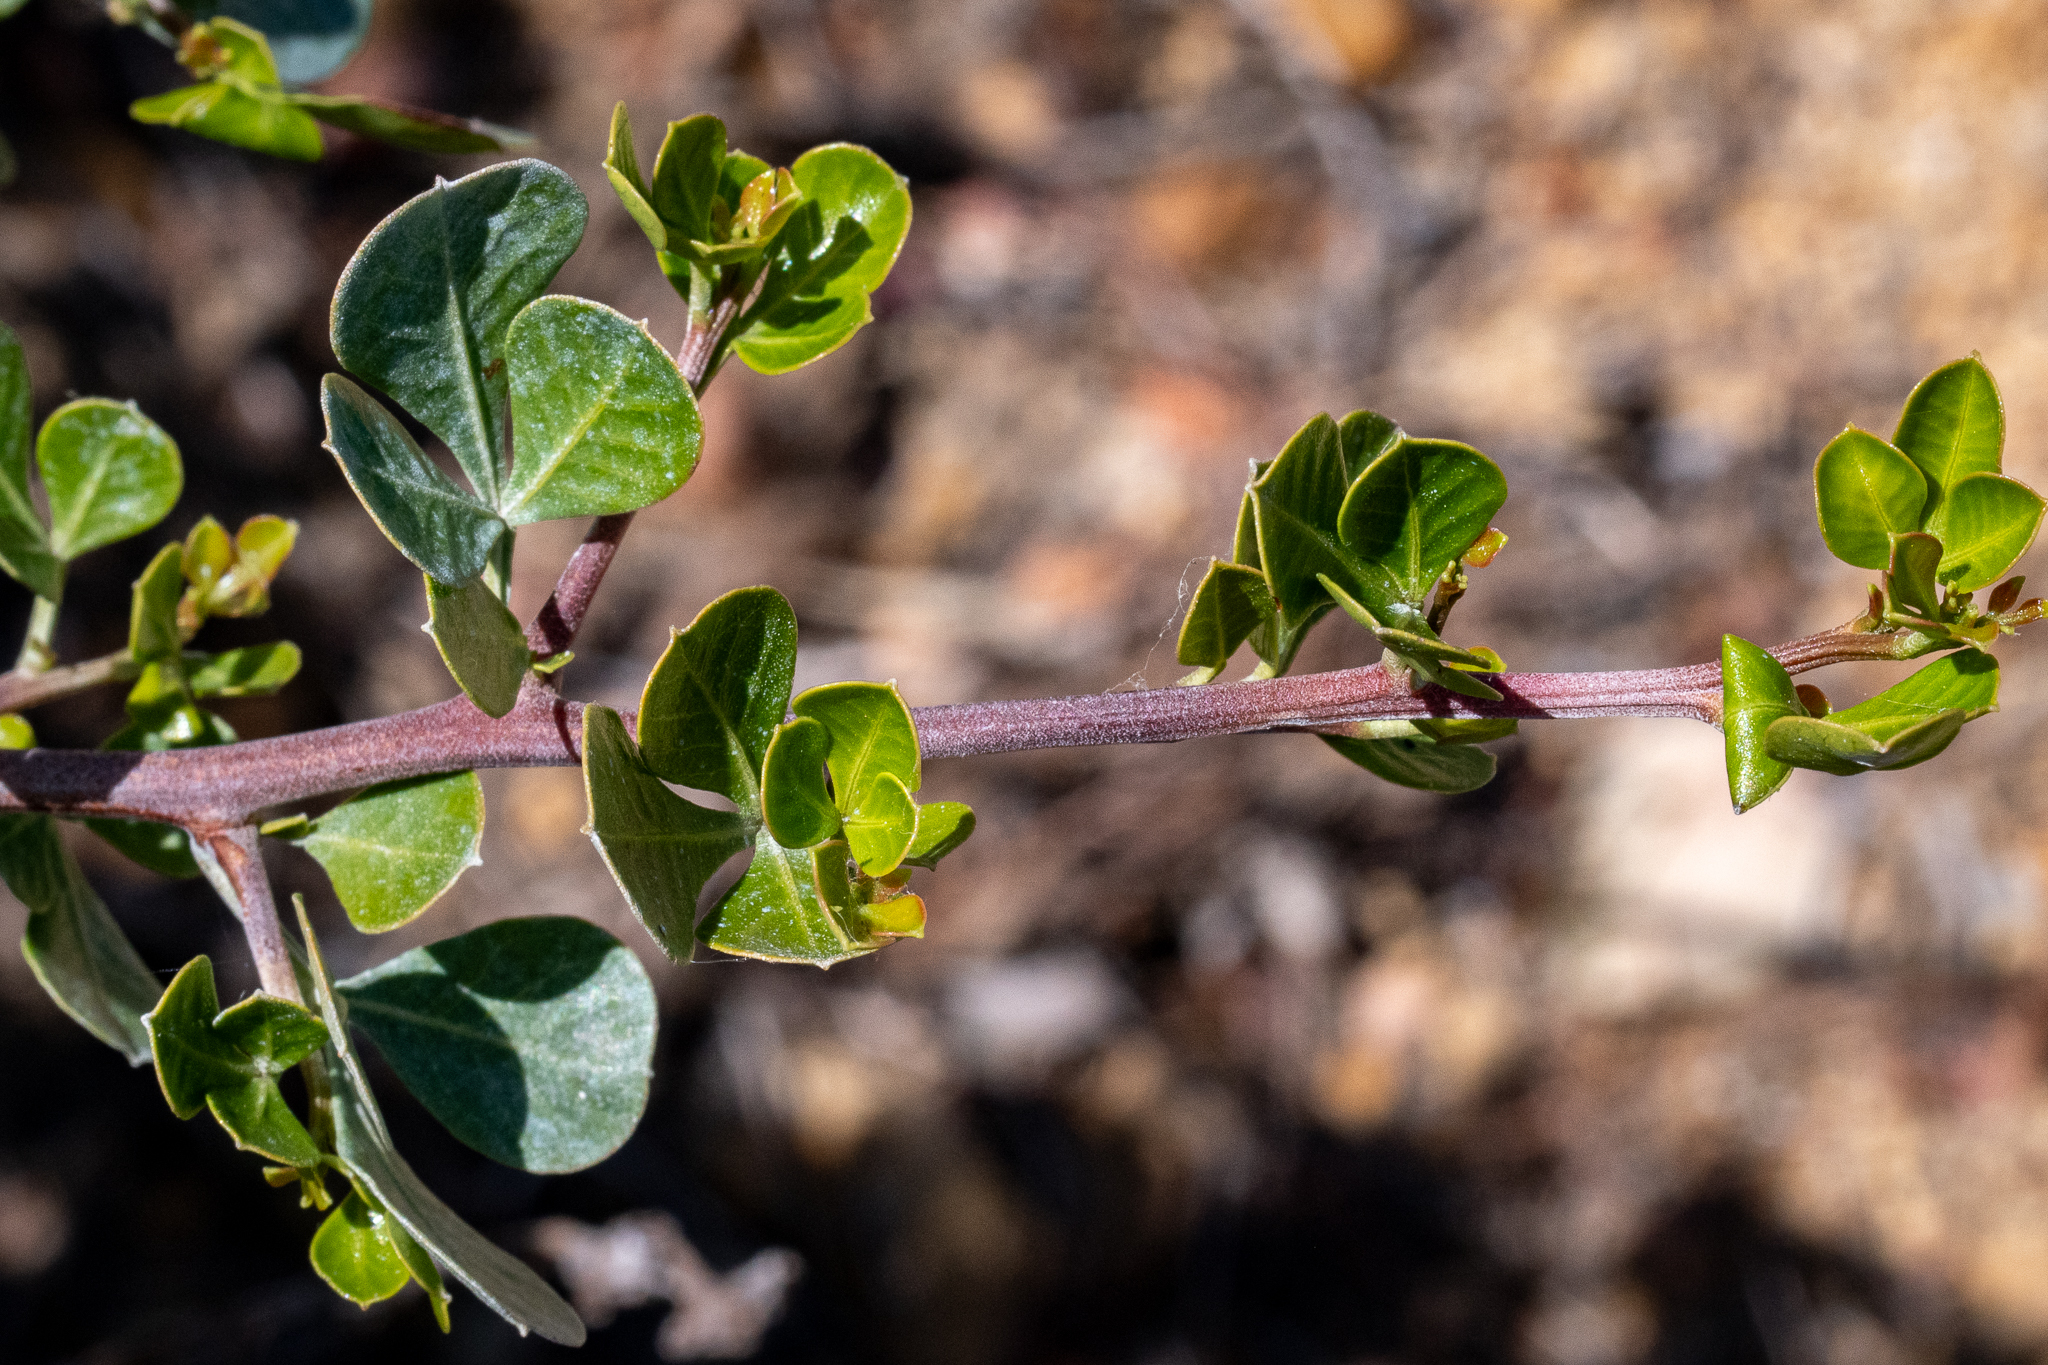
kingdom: Plantae
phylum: Tracheophyta
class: Magnoliopsida
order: Sapindales
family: Anacardiaceae
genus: Searsia
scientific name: Searsia glauca
